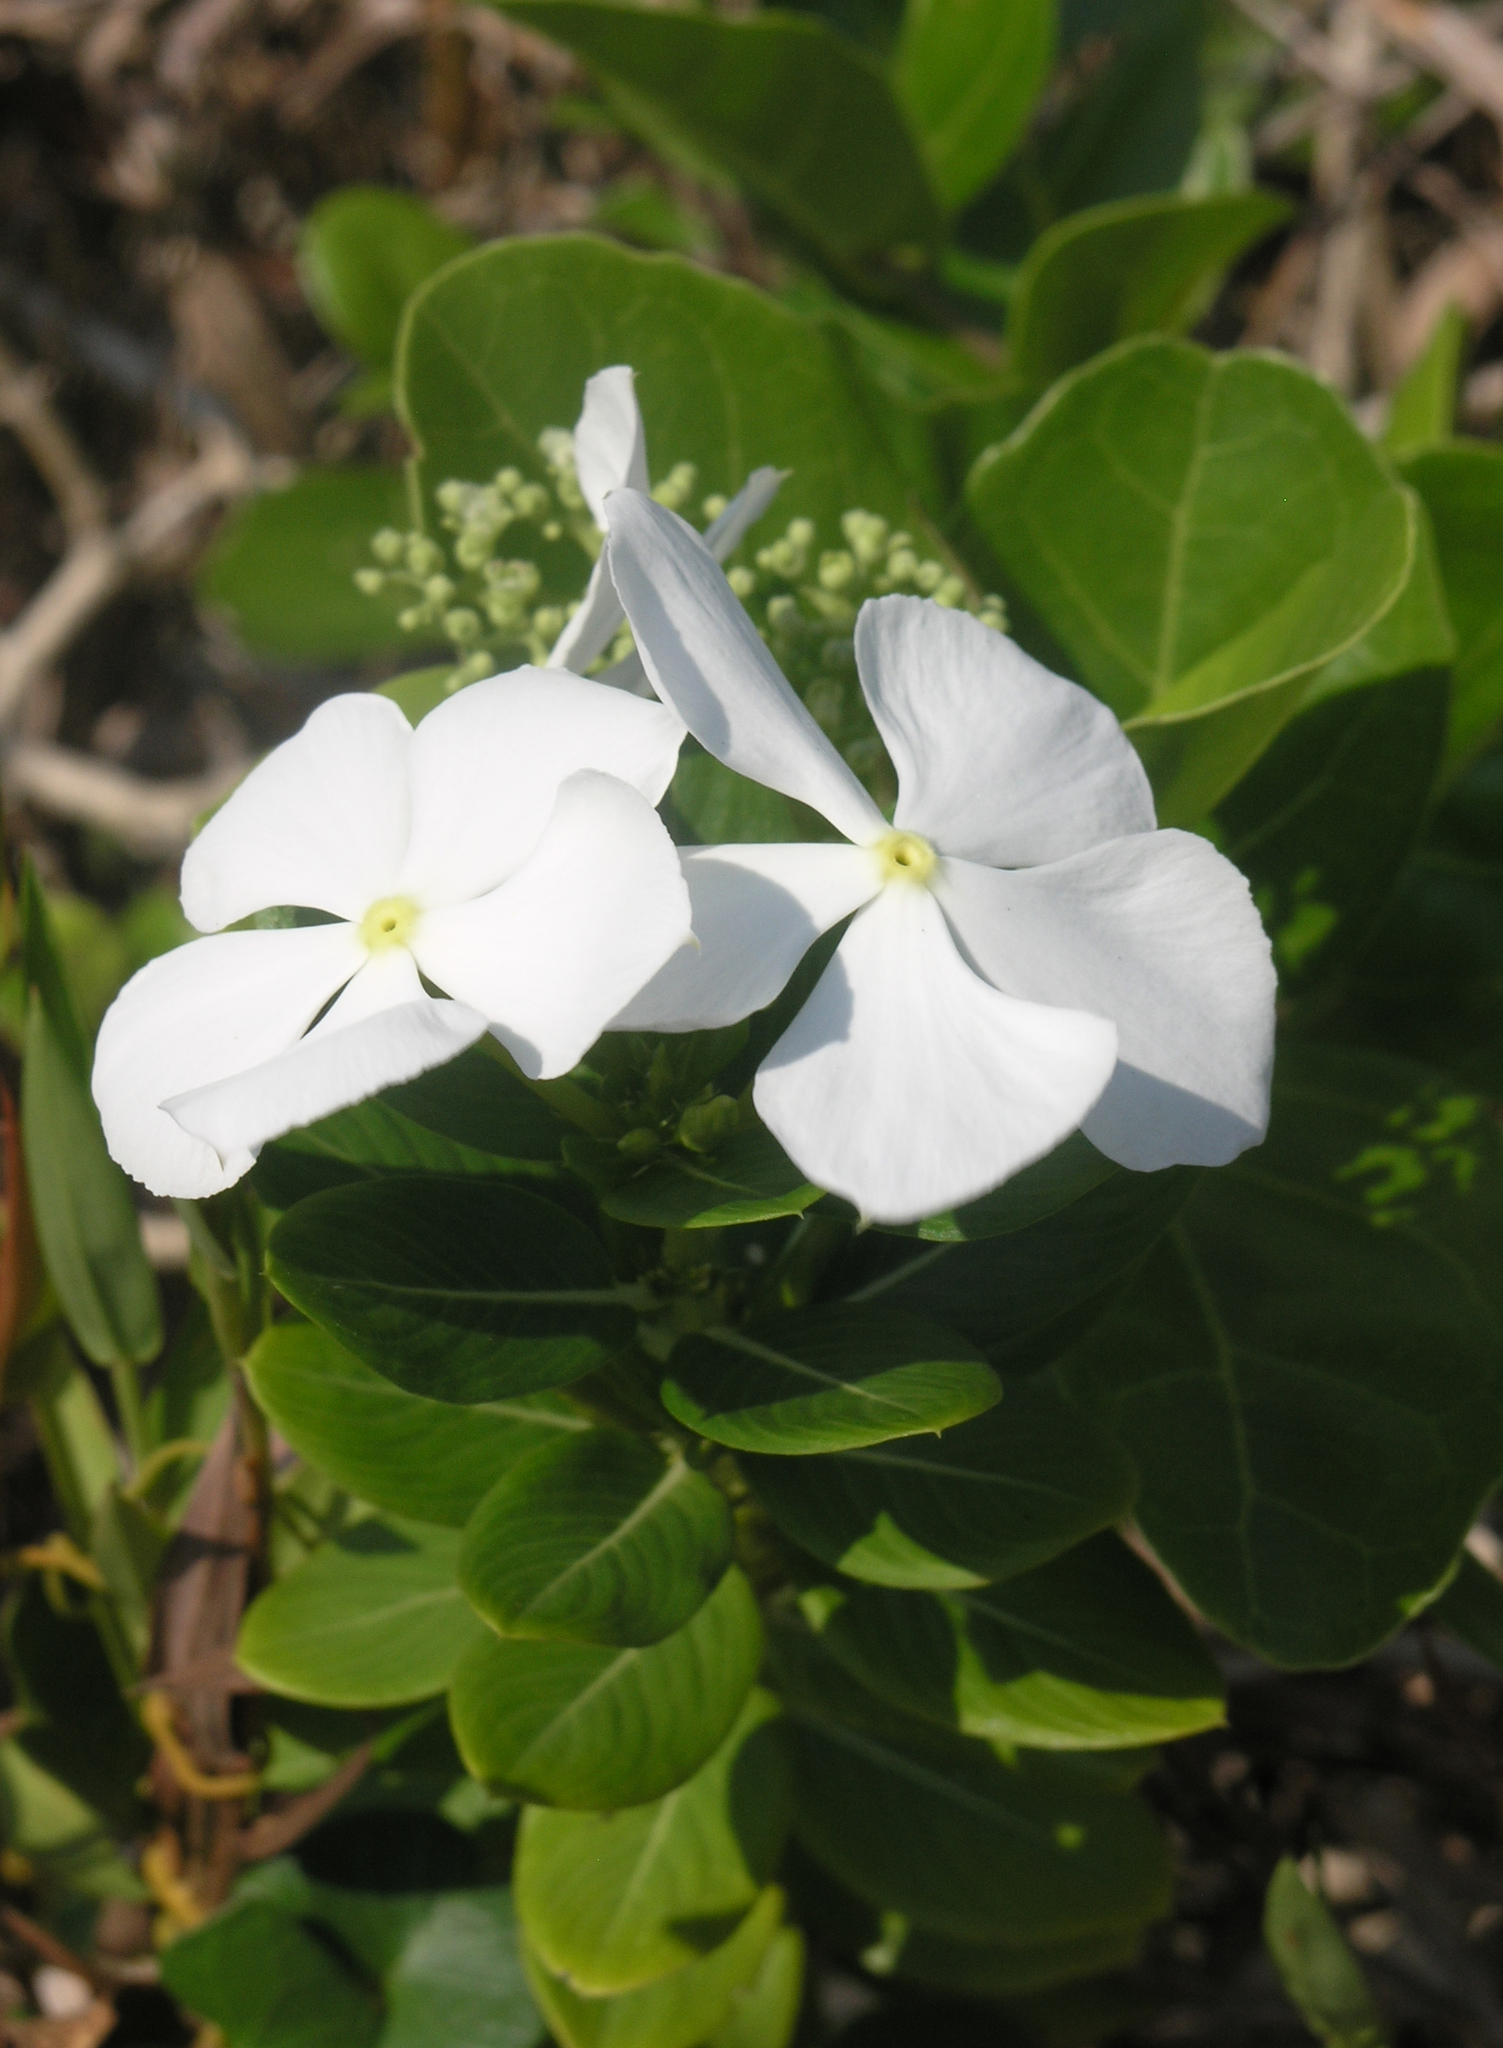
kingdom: Plantae
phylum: Tracheophyta
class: Magnoliopsida
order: Gentianales
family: Apocynaceae
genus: Catharanthus
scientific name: Catharanthus roseus
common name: Madagascar periwinkle
